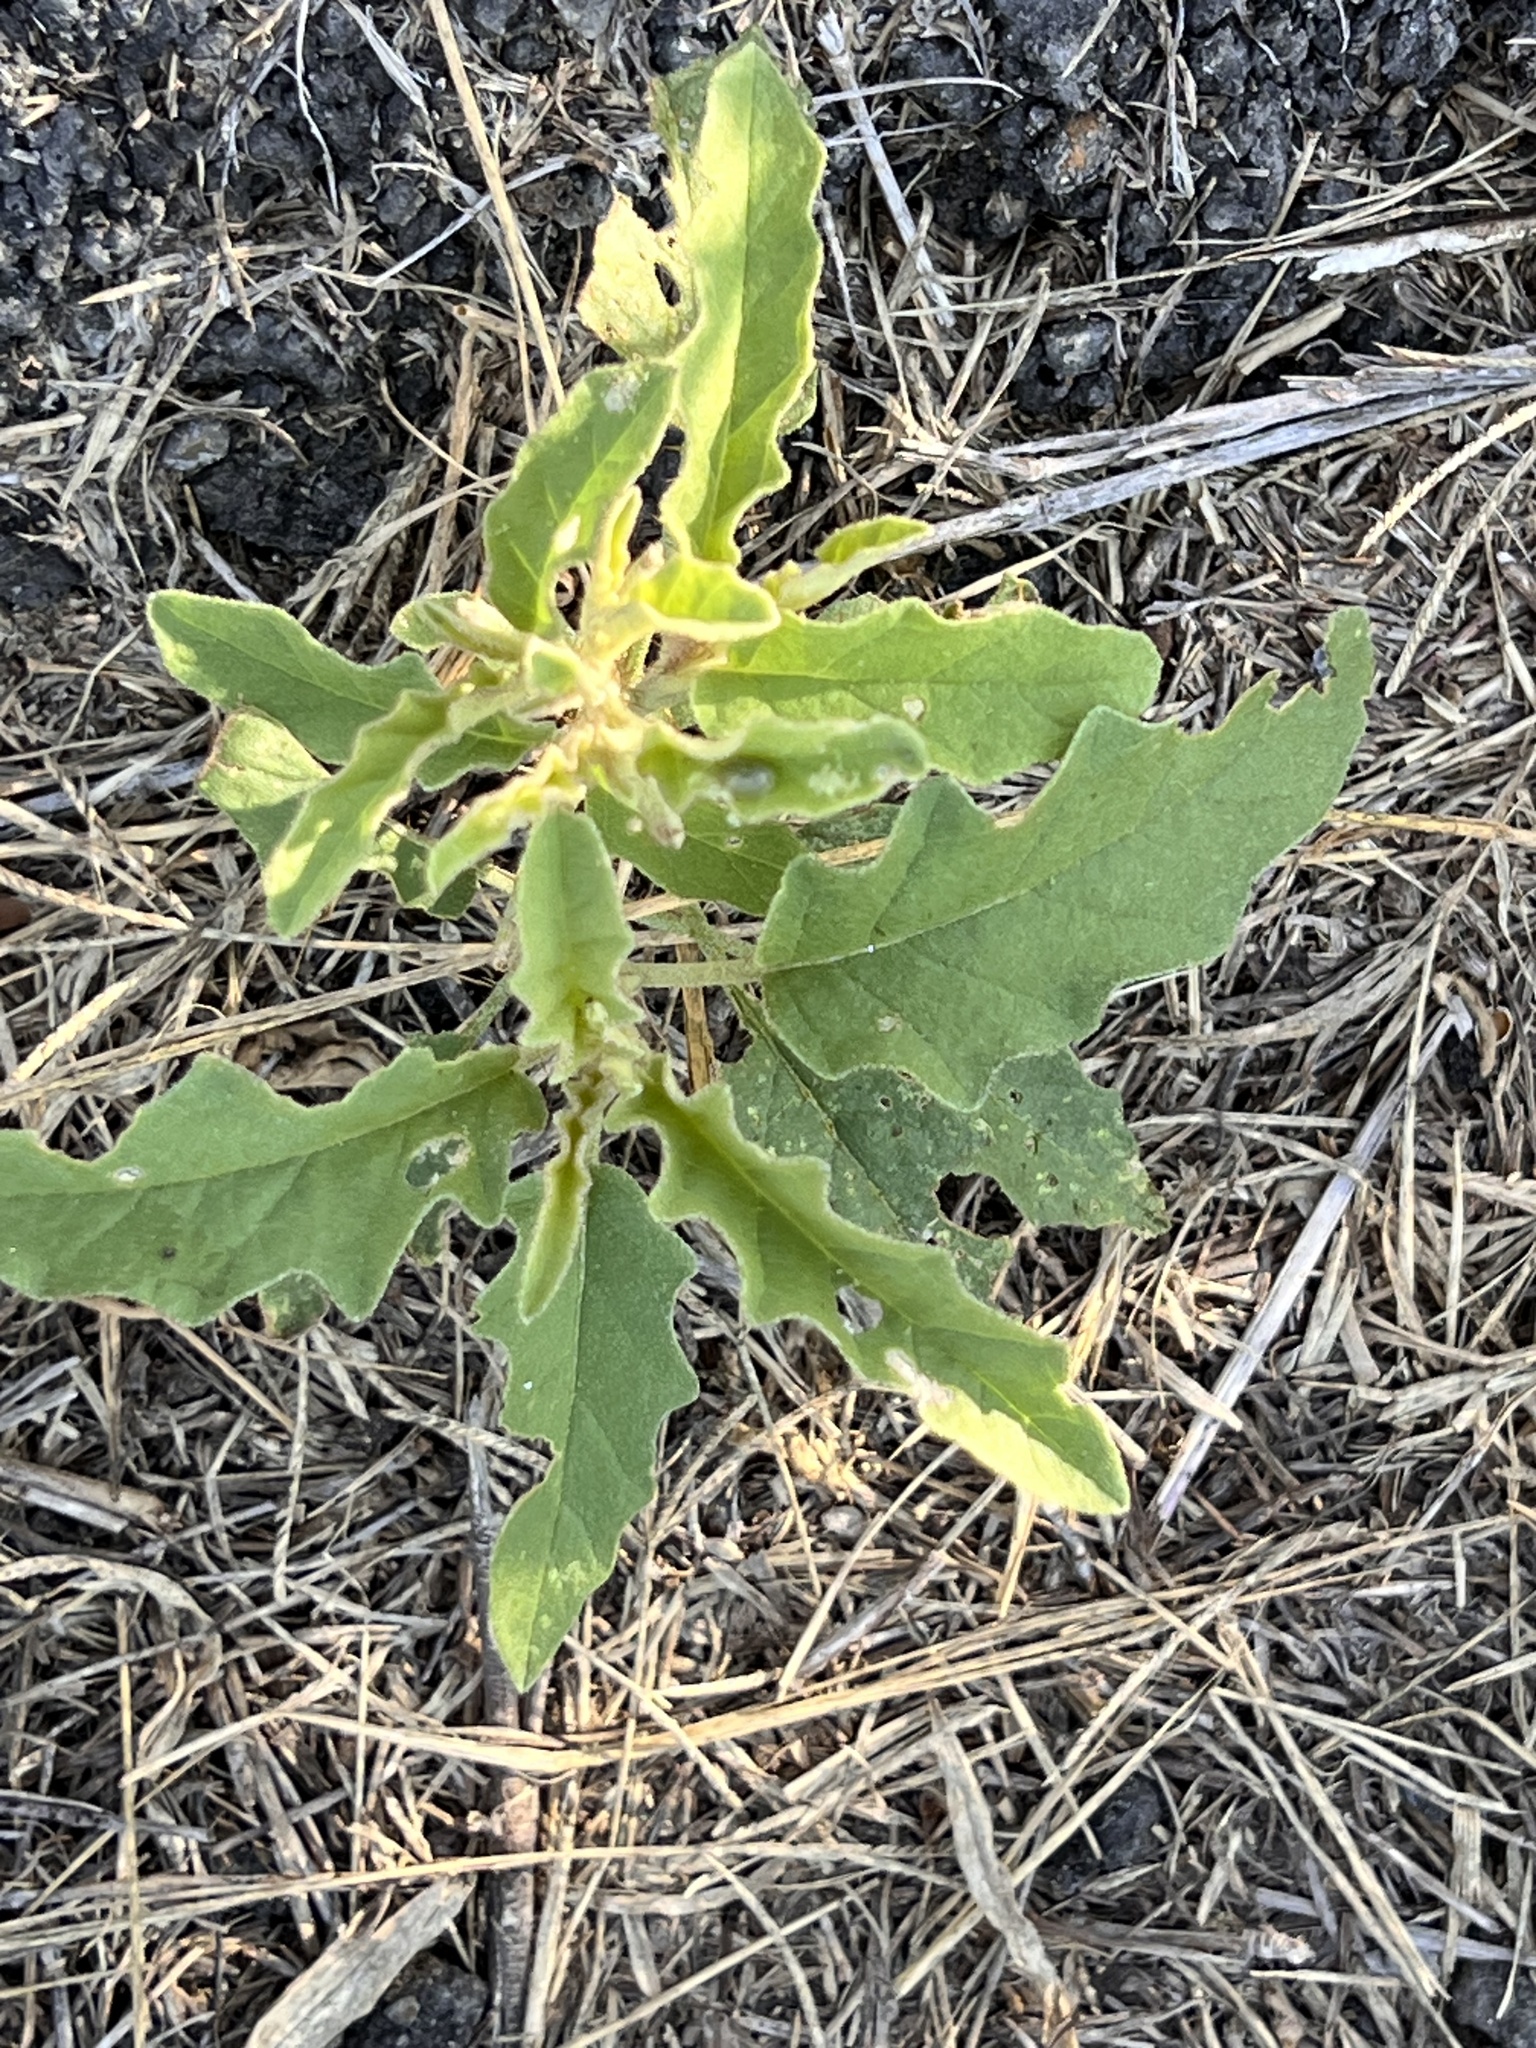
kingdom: Plantae
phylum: Tracheophyta
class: Magnoliopsida
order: Solanales
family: Solanaceae
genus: Solanum
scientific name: Solanum elaeagnifolium
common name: Silverleaf nightshade
